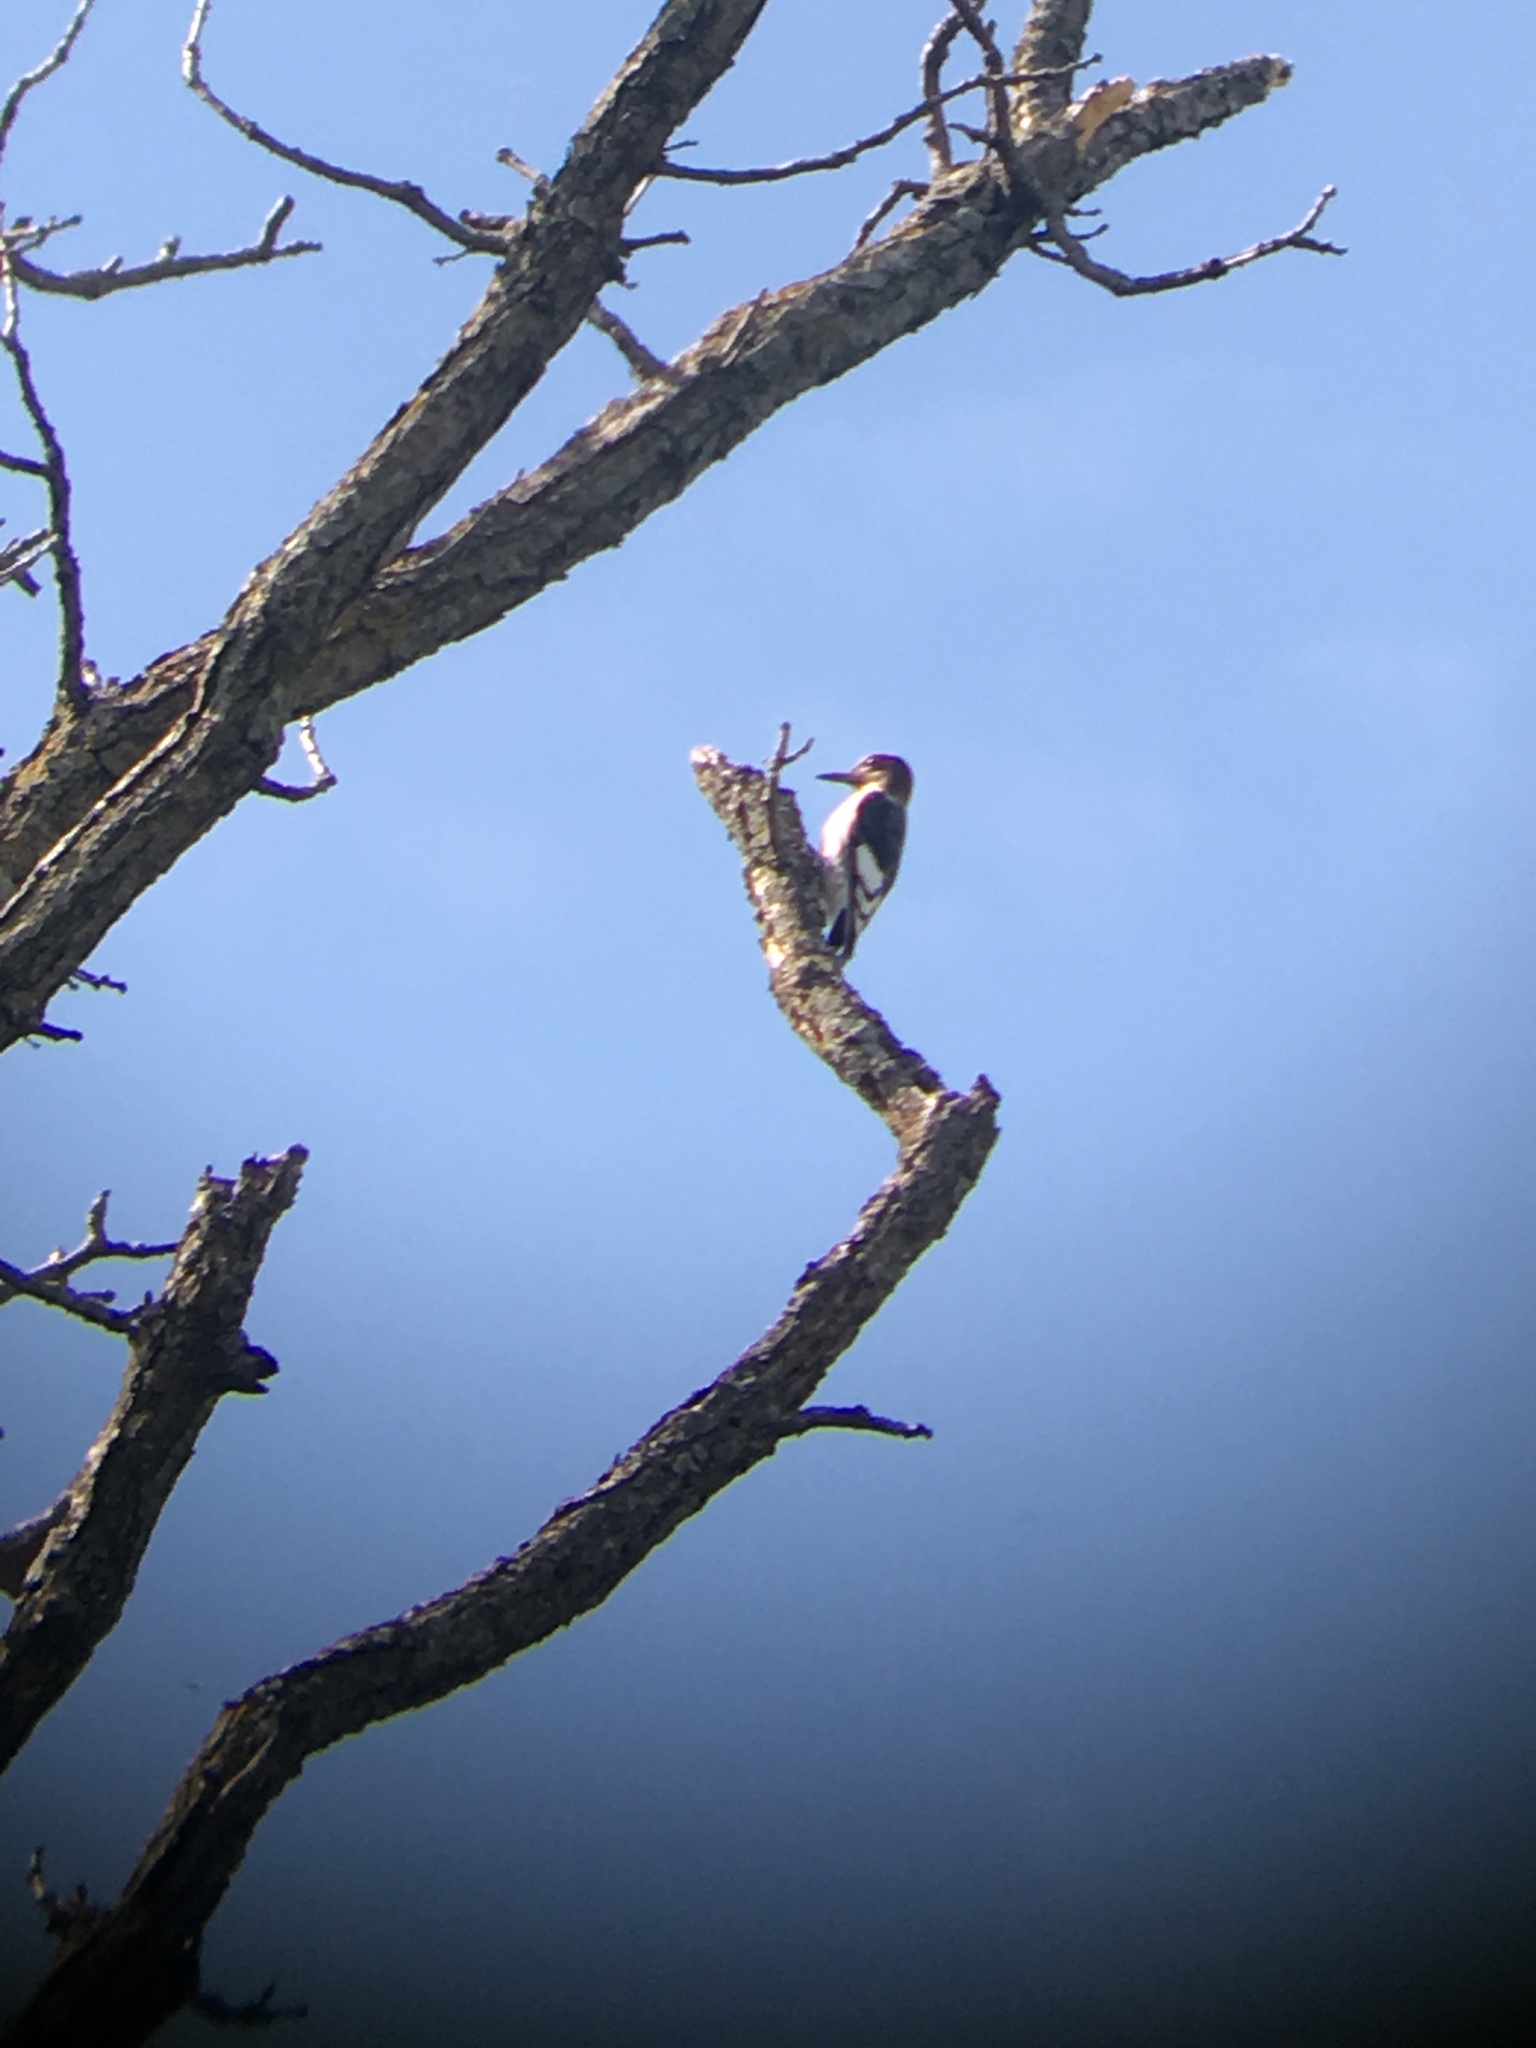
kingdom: Animalia
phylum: Chordata
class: Aves
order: Piciformes
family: Picidae
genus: Melanerpes
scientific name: Melanerpes erythrocephalus
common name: Red-headed woodpecker
